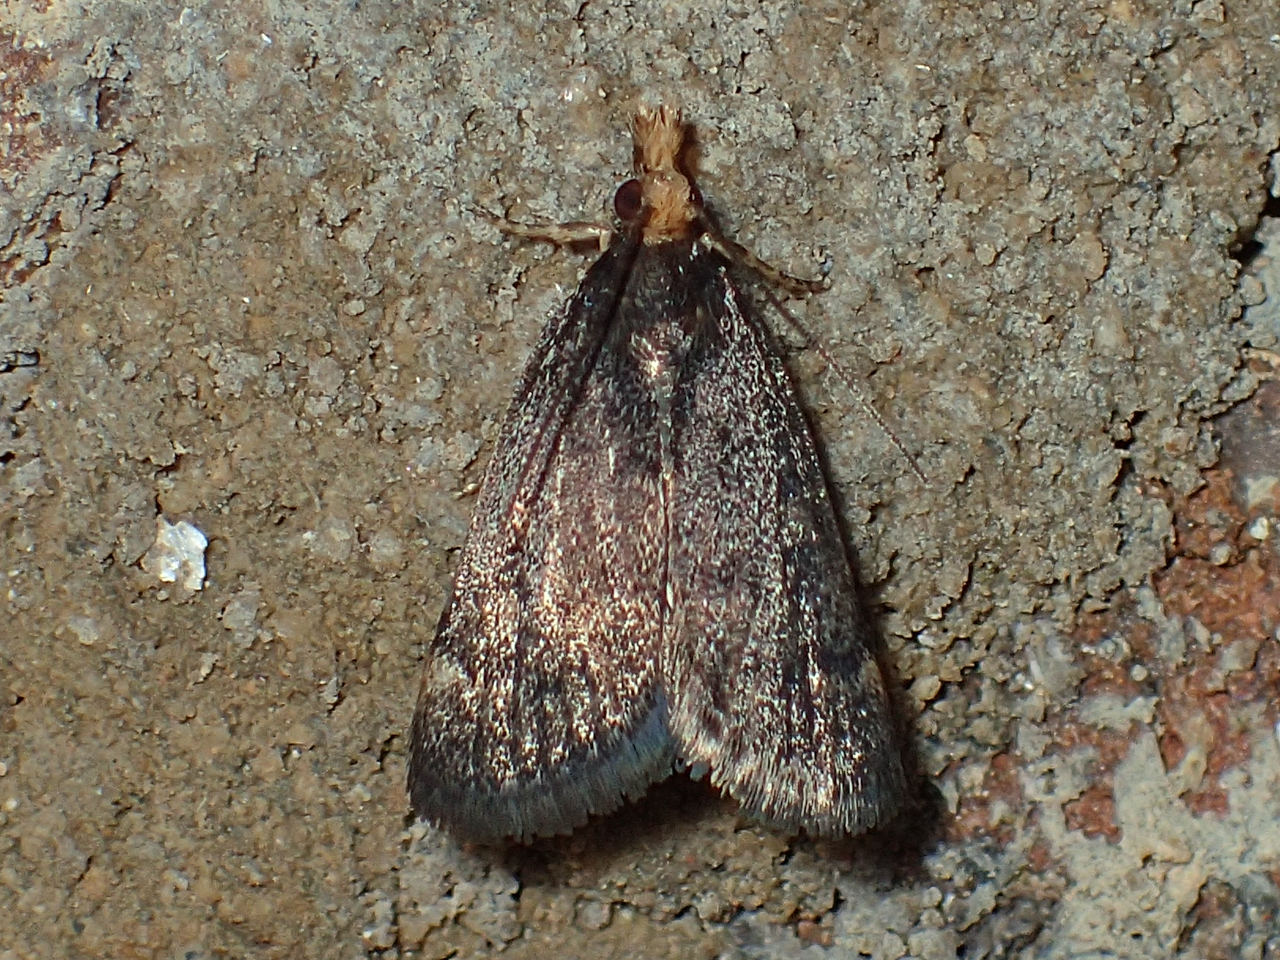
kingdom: Animalia
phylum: Arthropoda
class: Insecta
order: Lepidoptera
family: Crambidae
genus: Pyrausta
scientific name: Pyrausta merrickalis
